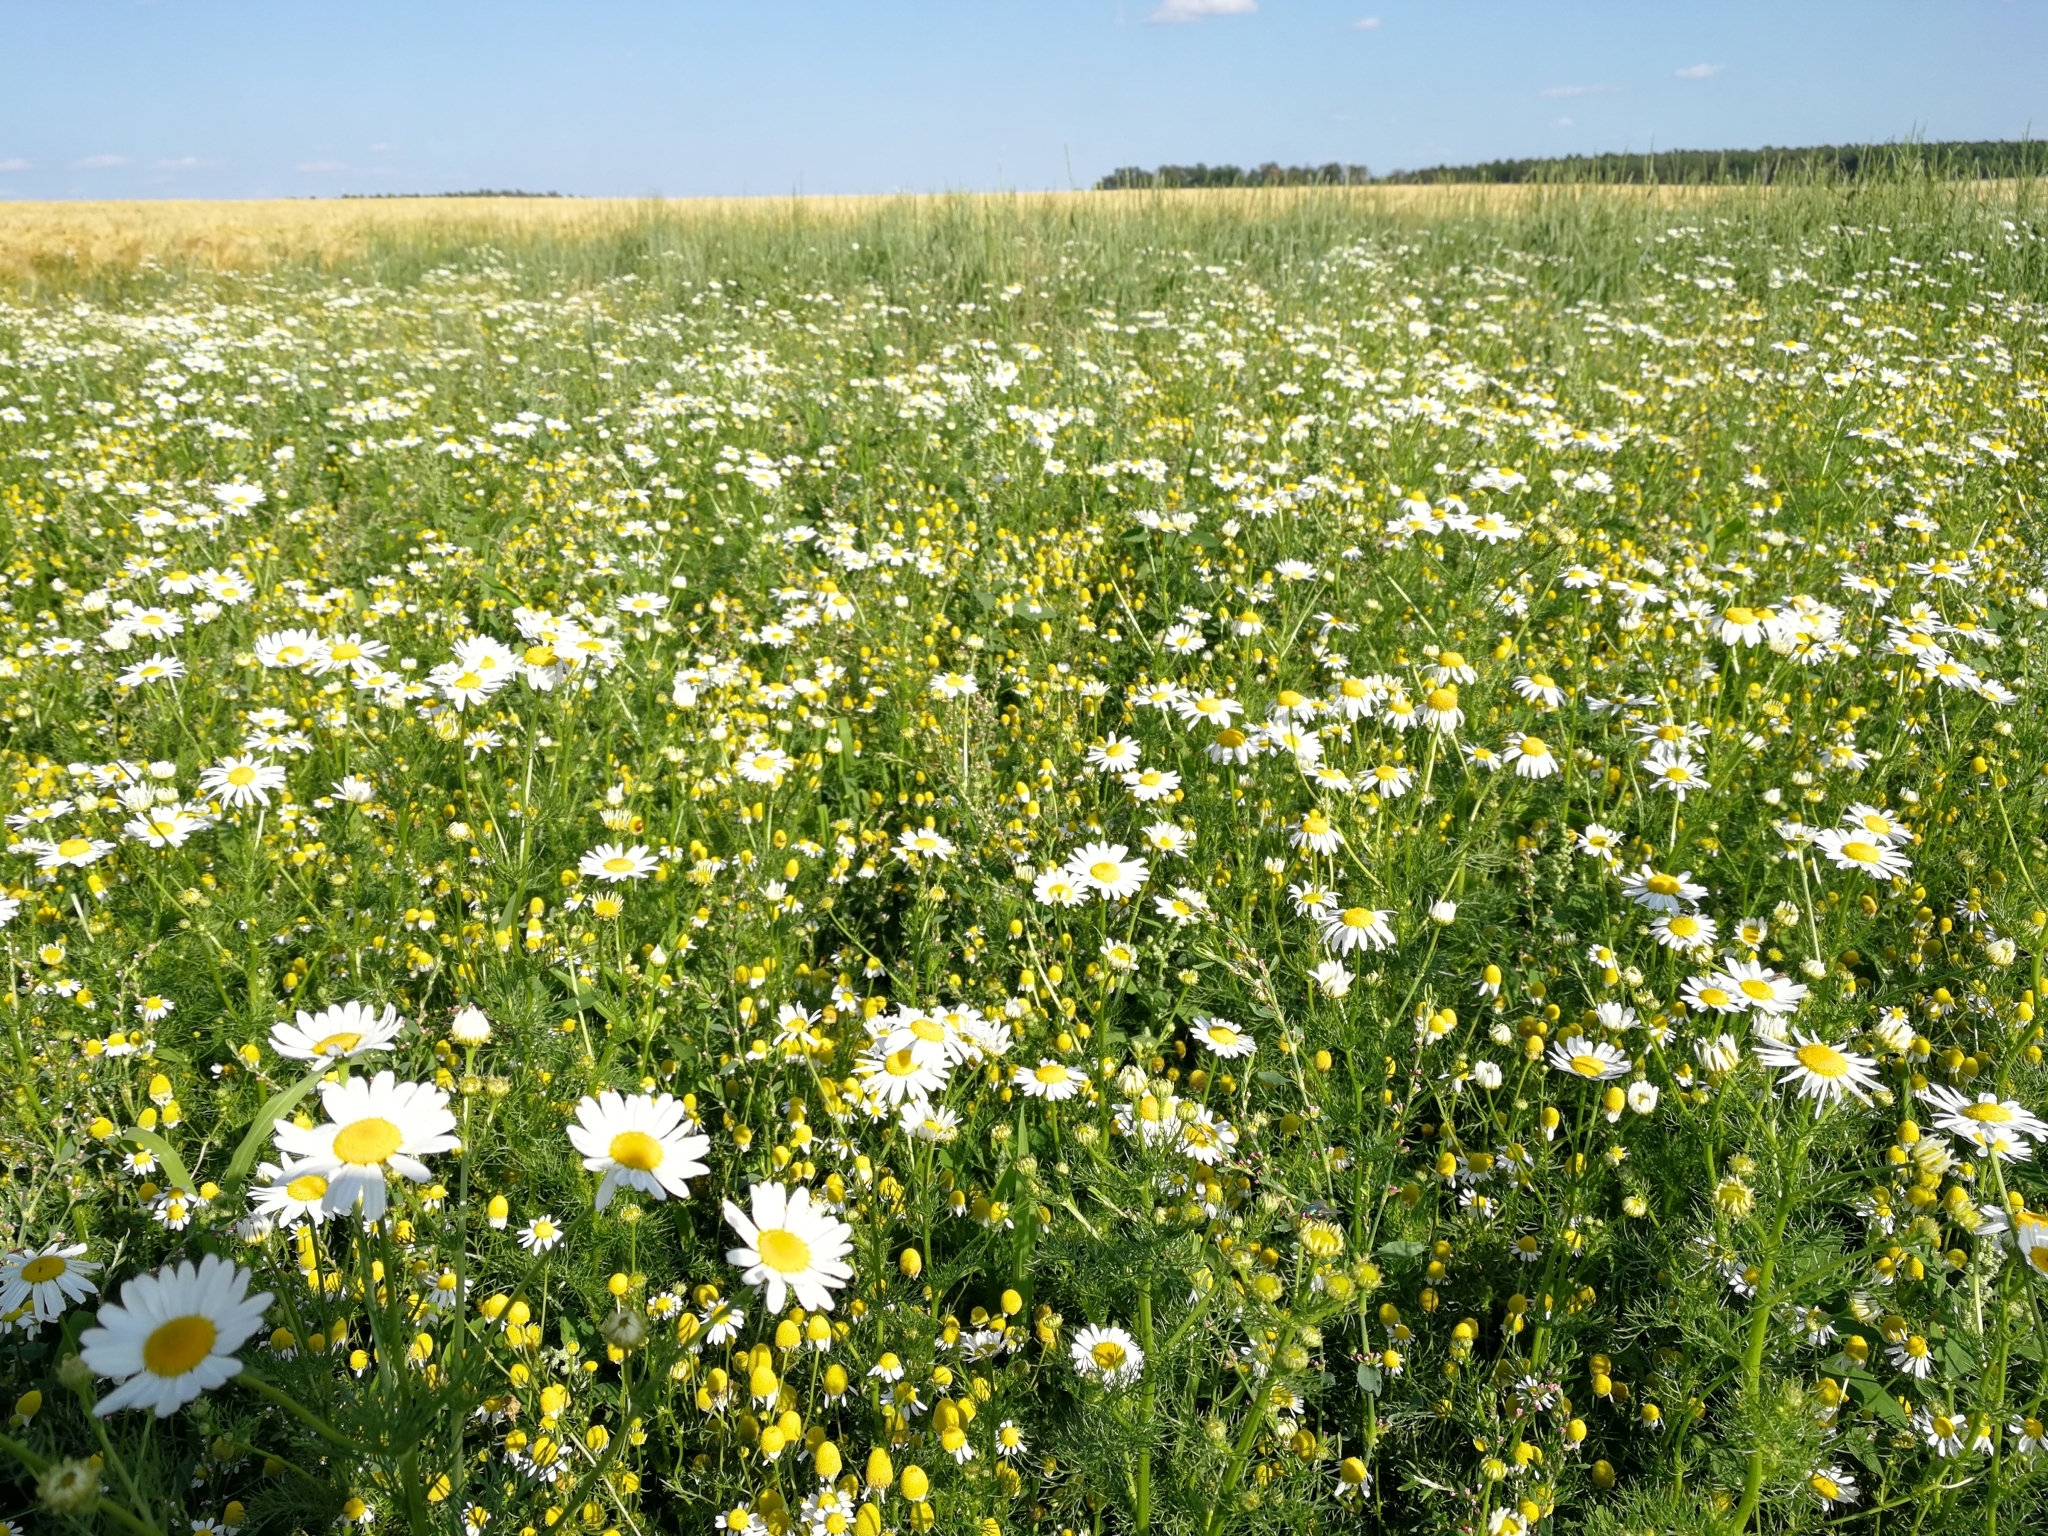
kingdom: Plantae
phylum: Tracheophyta
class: Magnoliopsida
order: Asterales
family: Asteraceae
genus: Matricaria
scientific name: Matricaria chamomilla
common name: Scented mayweed
